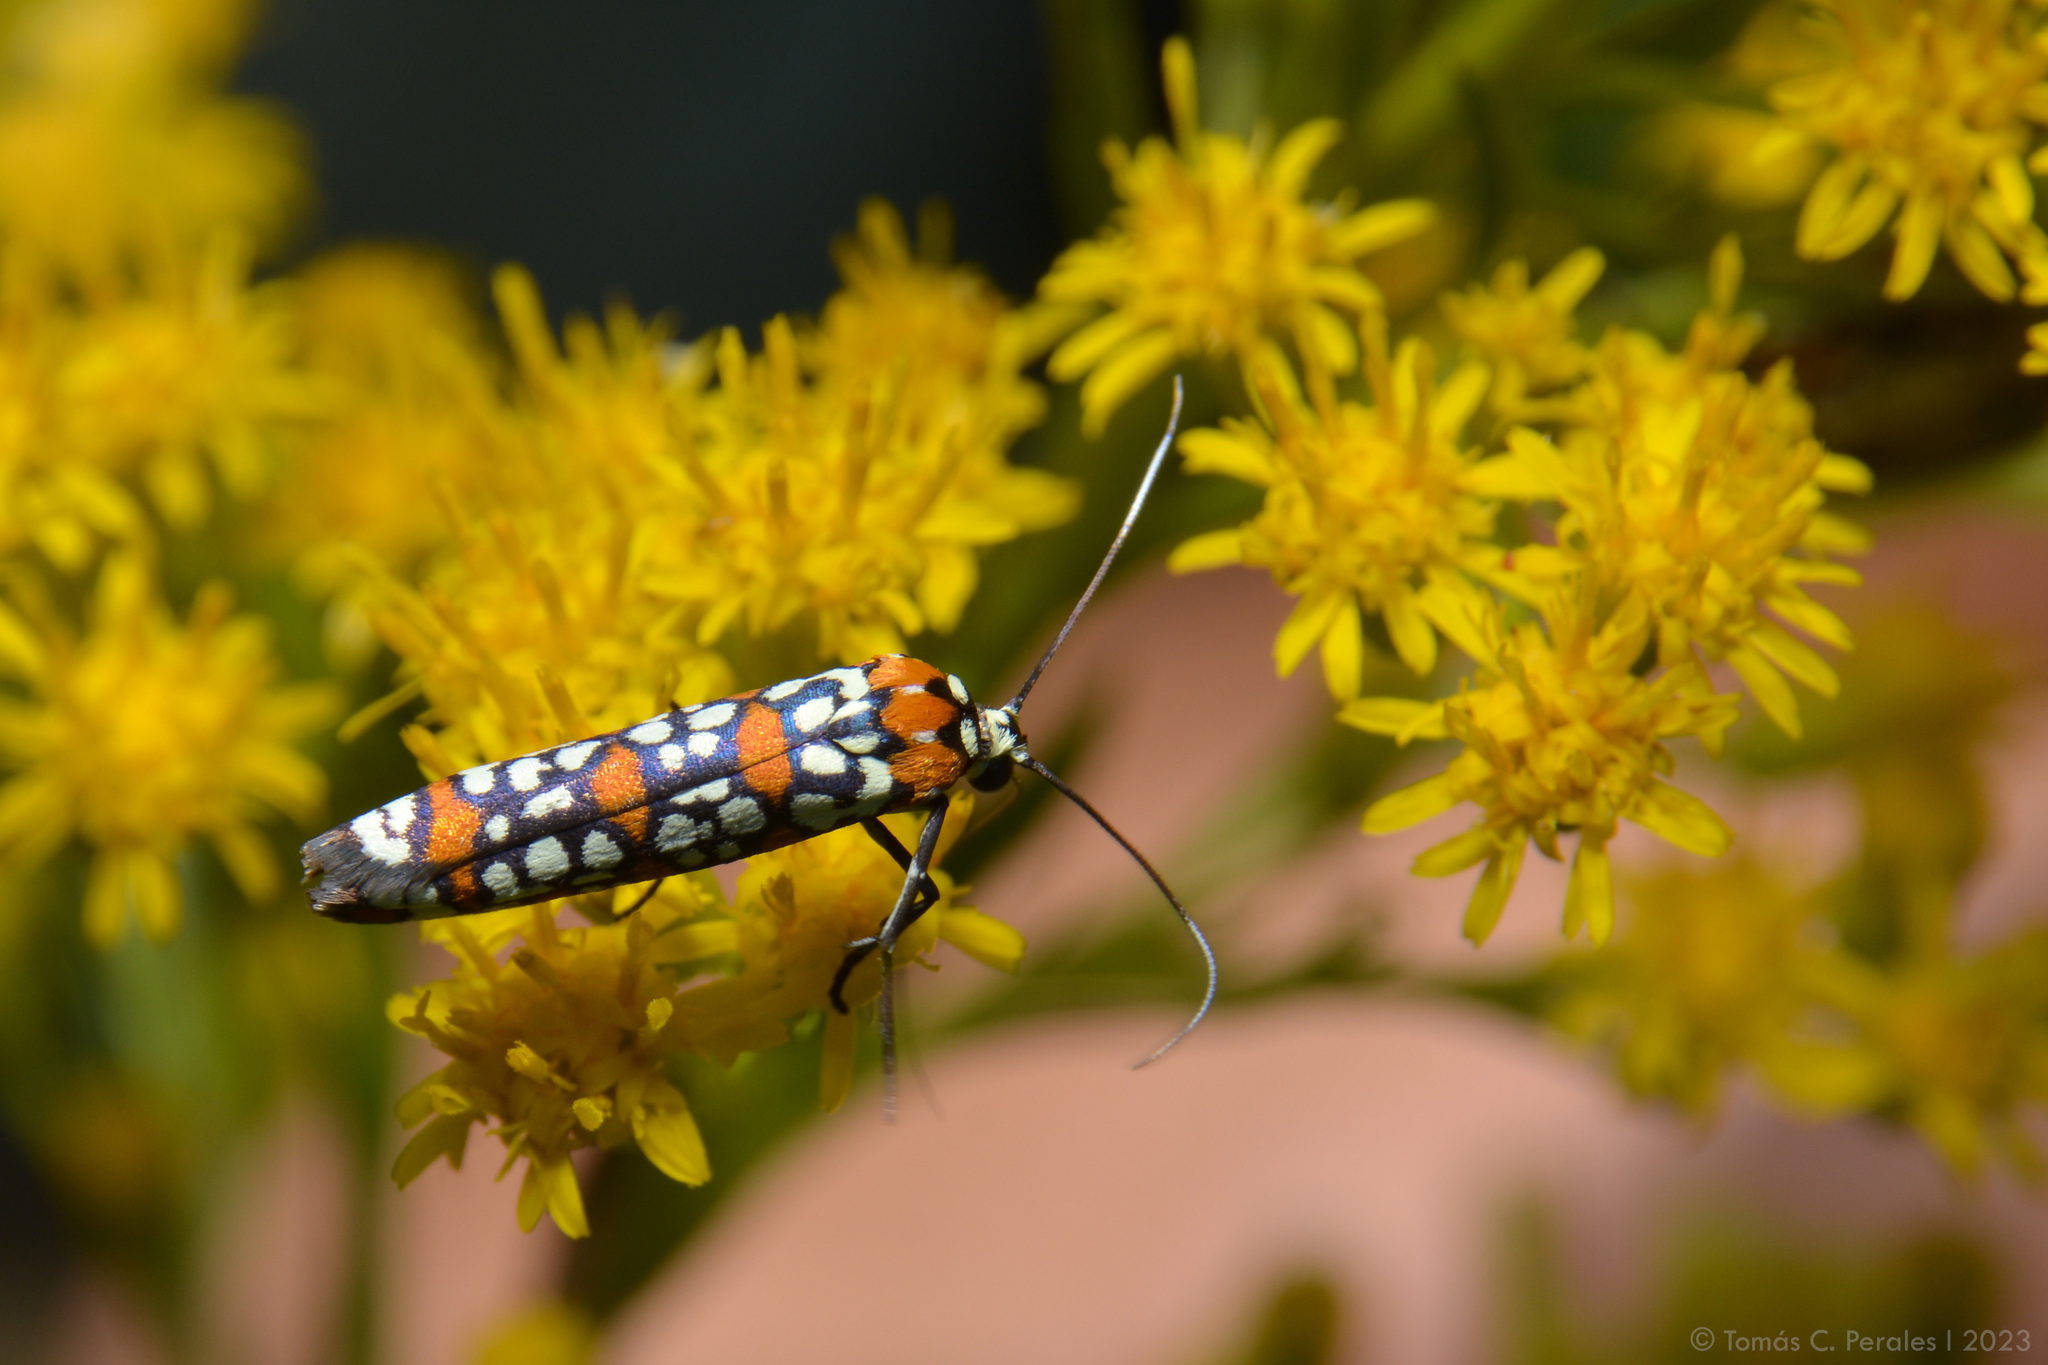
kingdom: Animalia
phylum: Arthropoda
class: Insecta
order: Lepidoptera
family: Attevidae
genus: Atteva
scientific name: Atteva punctella
